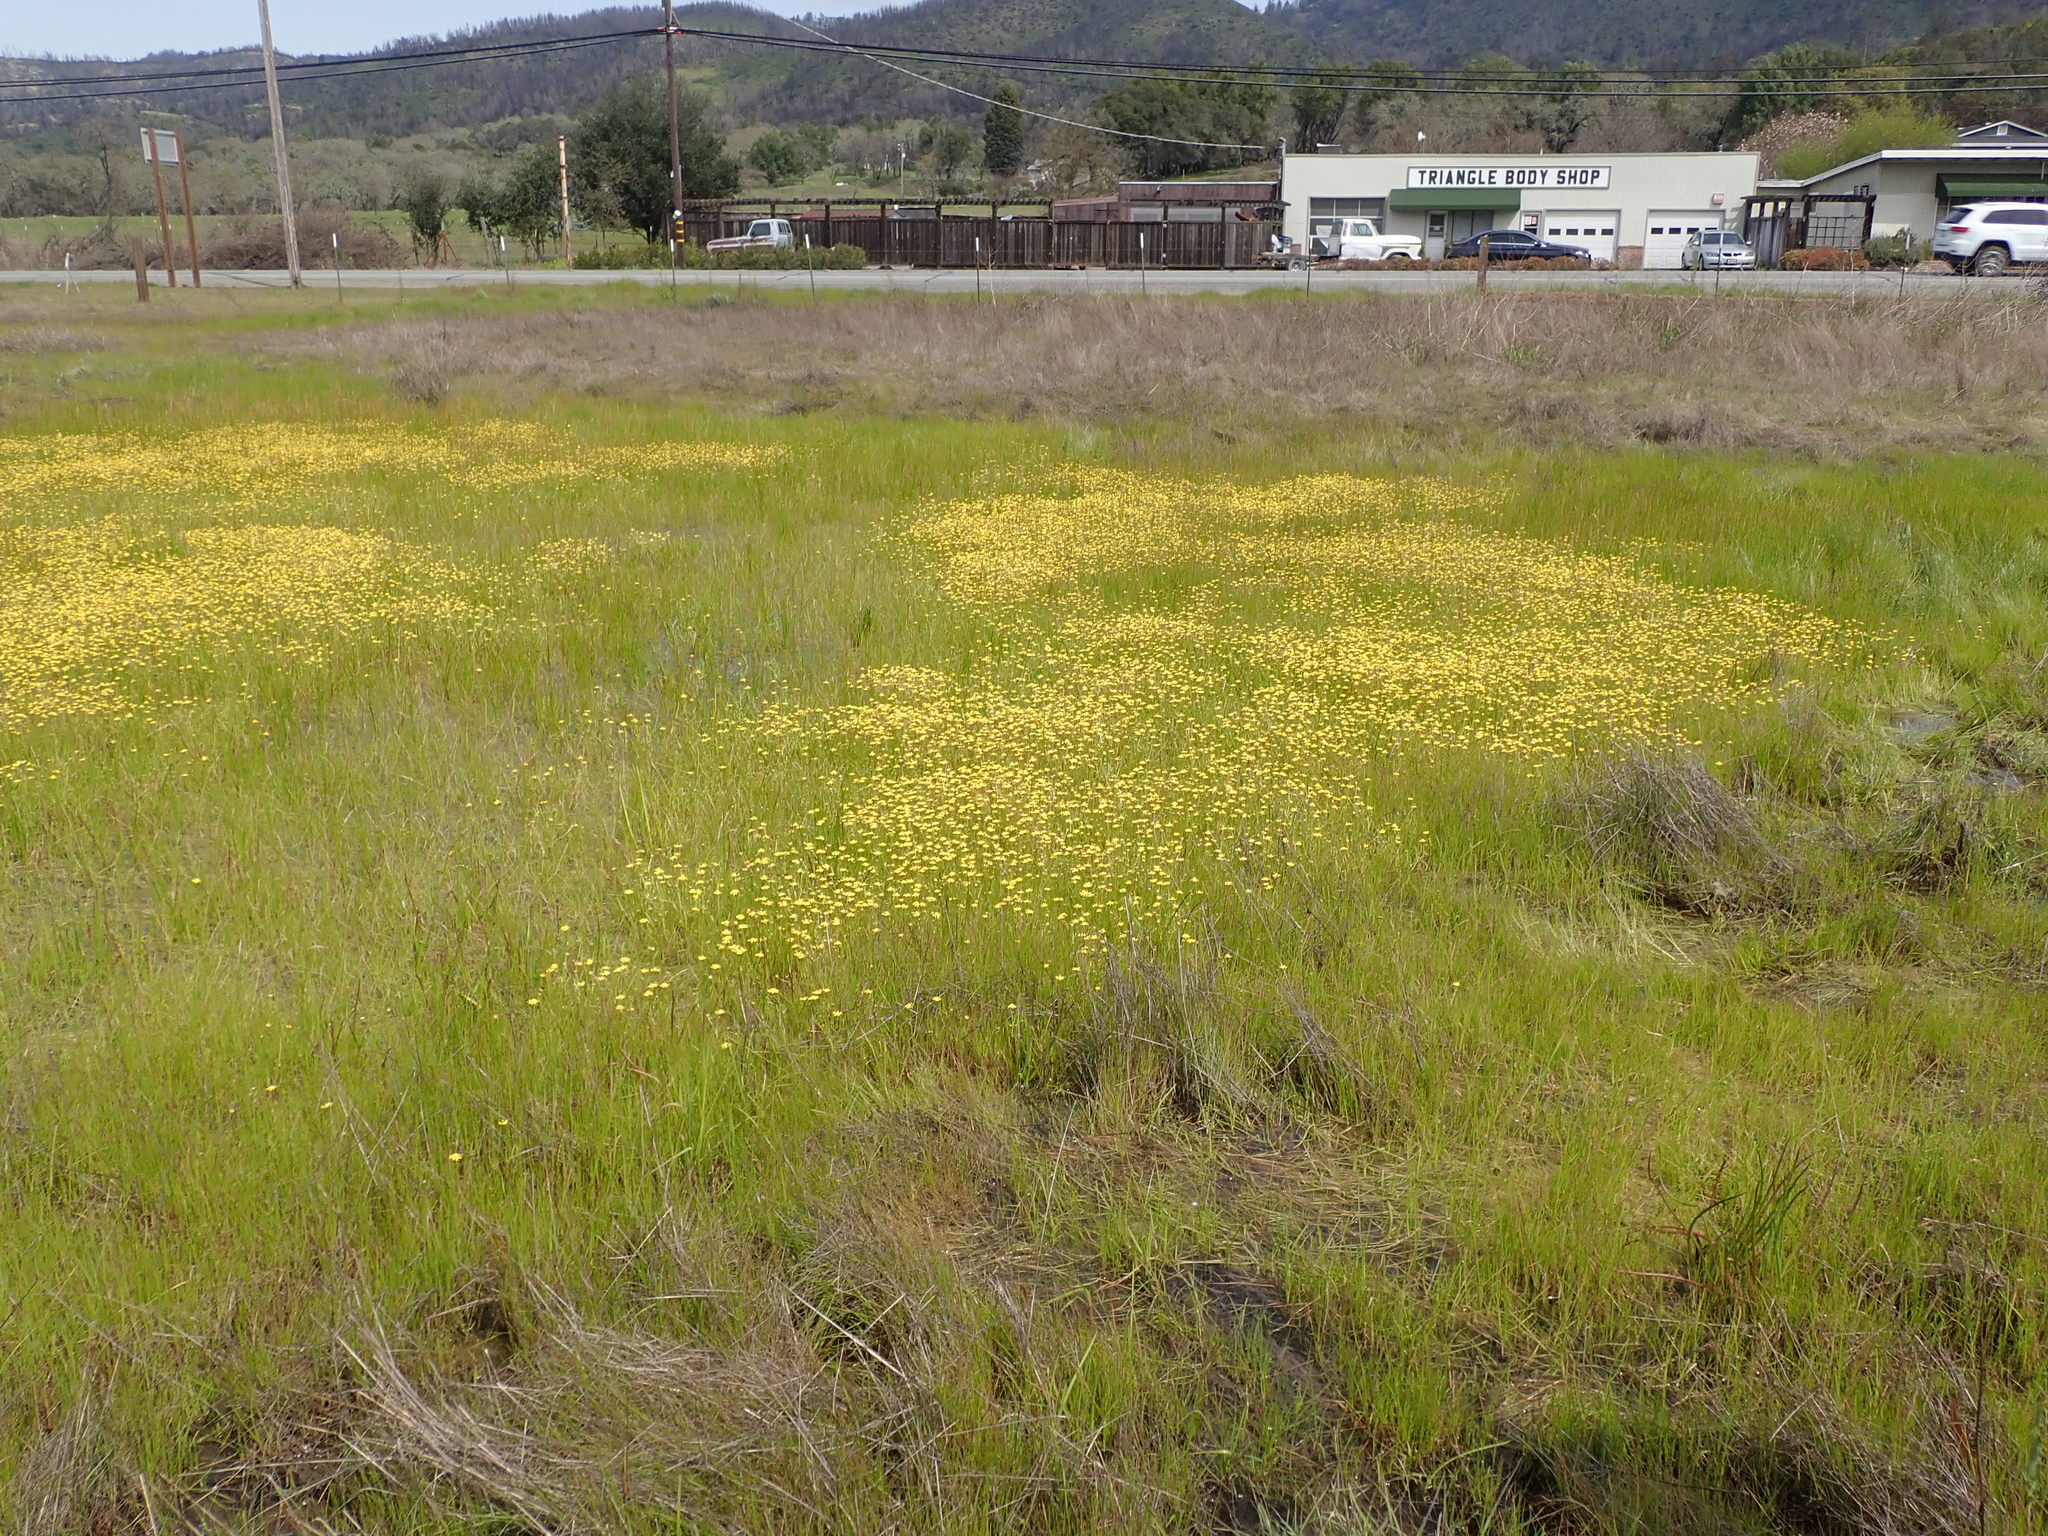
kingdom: Plantae
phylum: Tracheophyta
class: Magnoliopsida
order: Asterales
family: Asteraceae
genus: Blennosperma
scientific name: Blennosperma bakeri
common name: Sonoma sunshine
